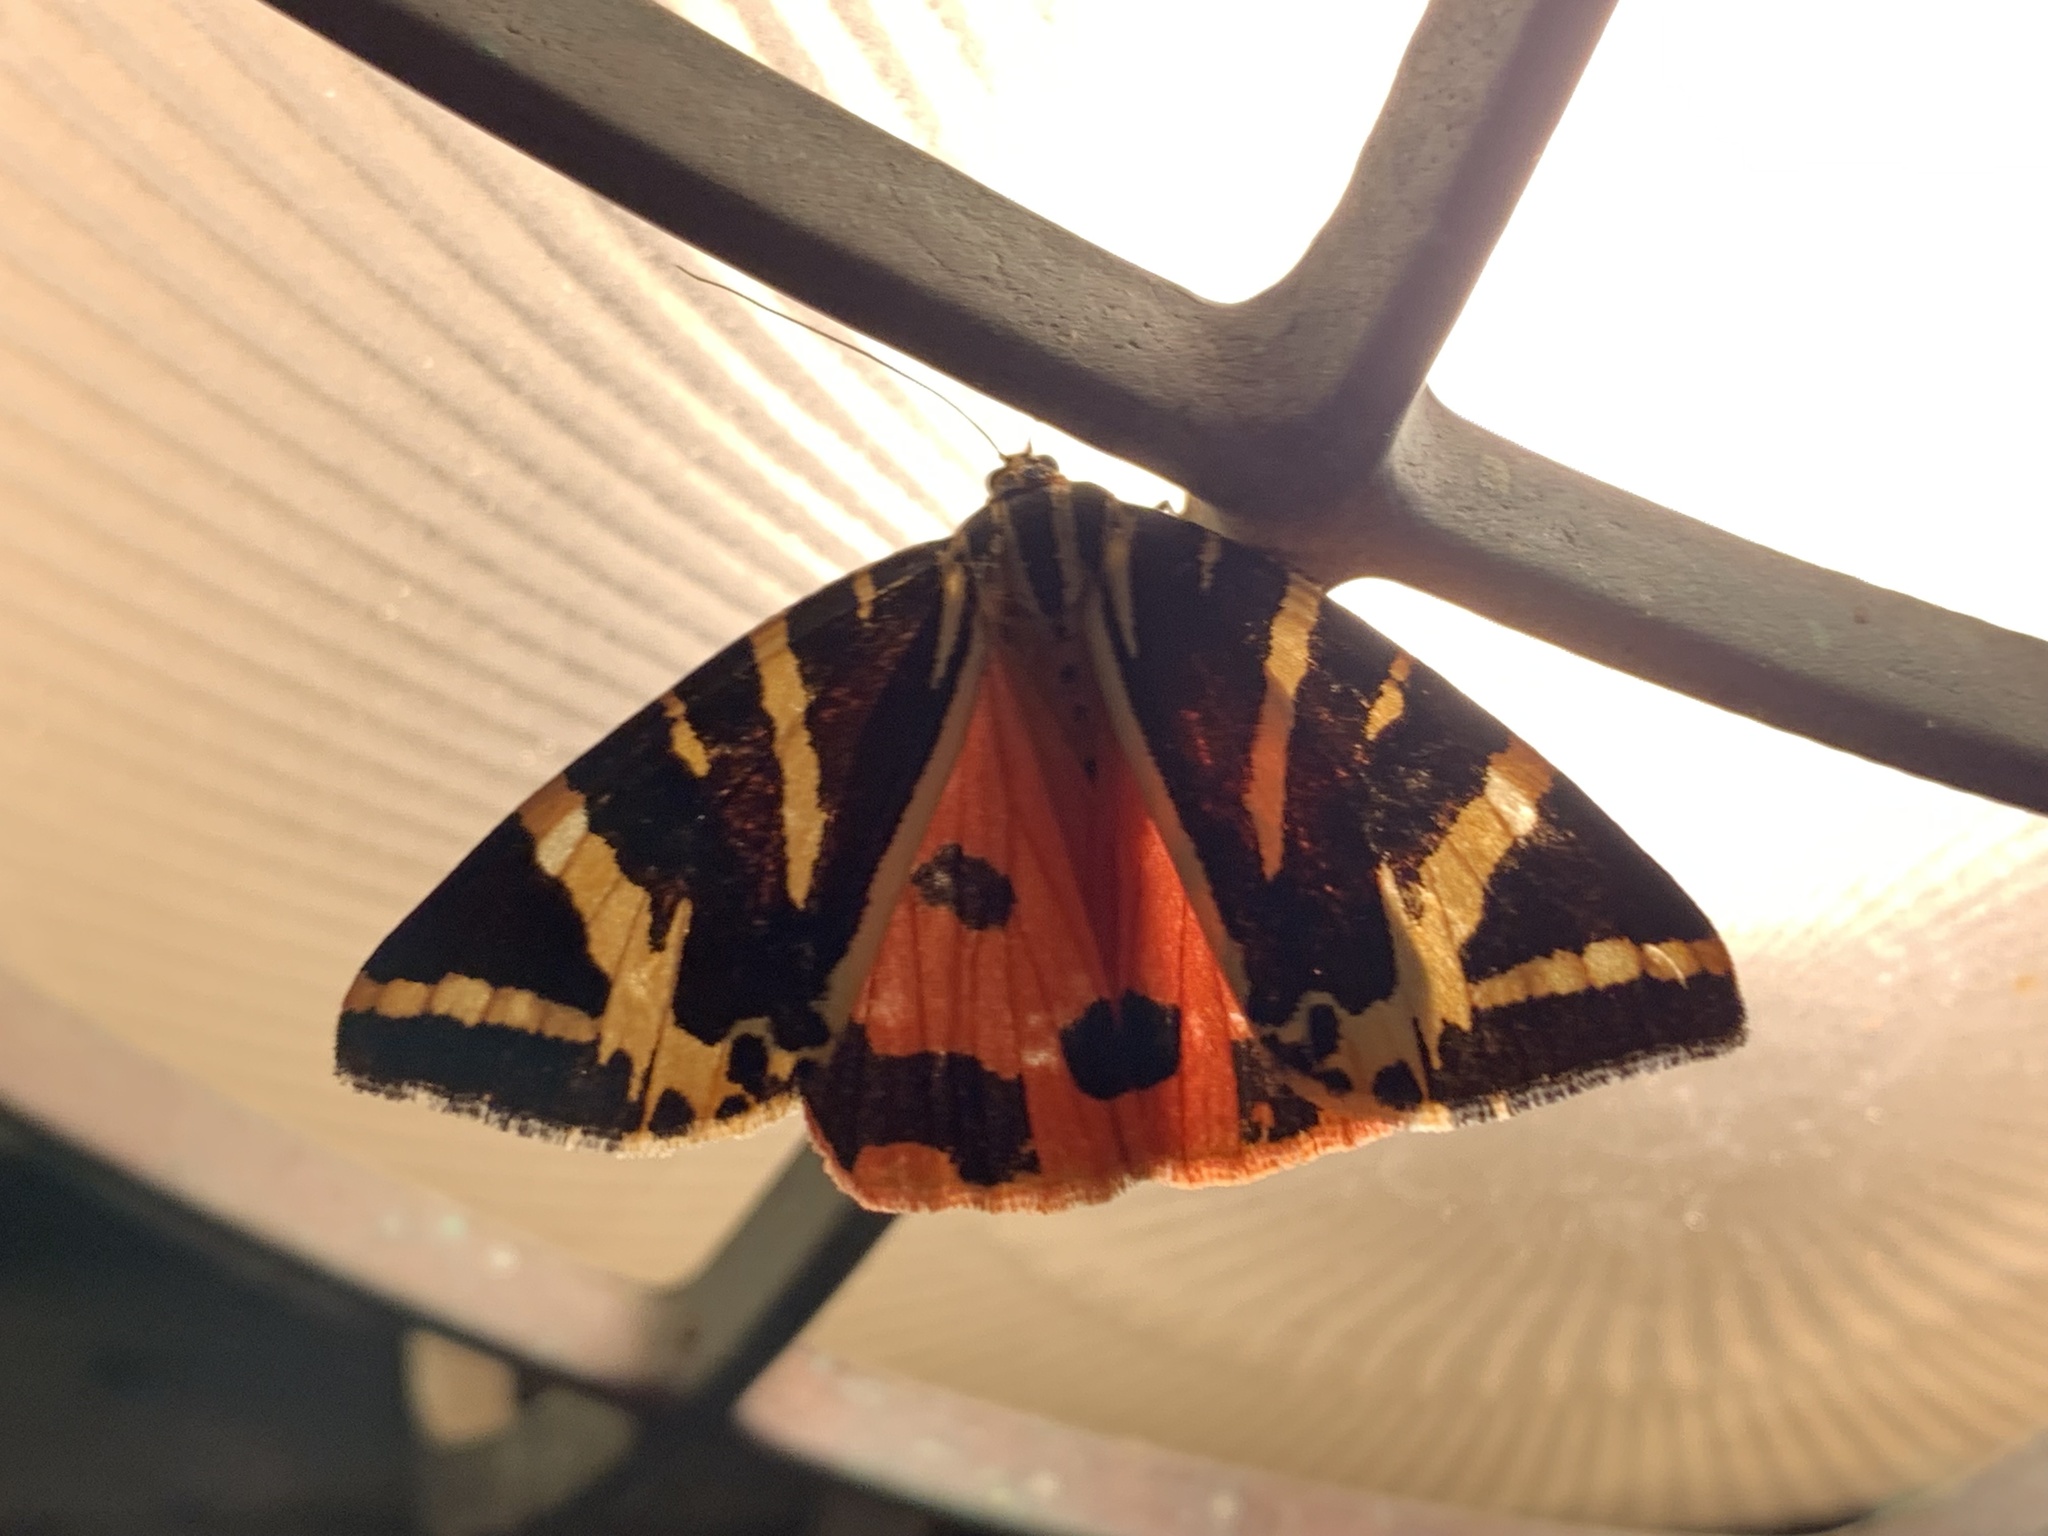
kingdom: Animalia
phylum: Arthropoda
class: Insecta
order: Lepidoptera
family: Erebidae
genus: Euplagia
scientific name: Euplagia quadripunctaria
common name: Jersey tiger
